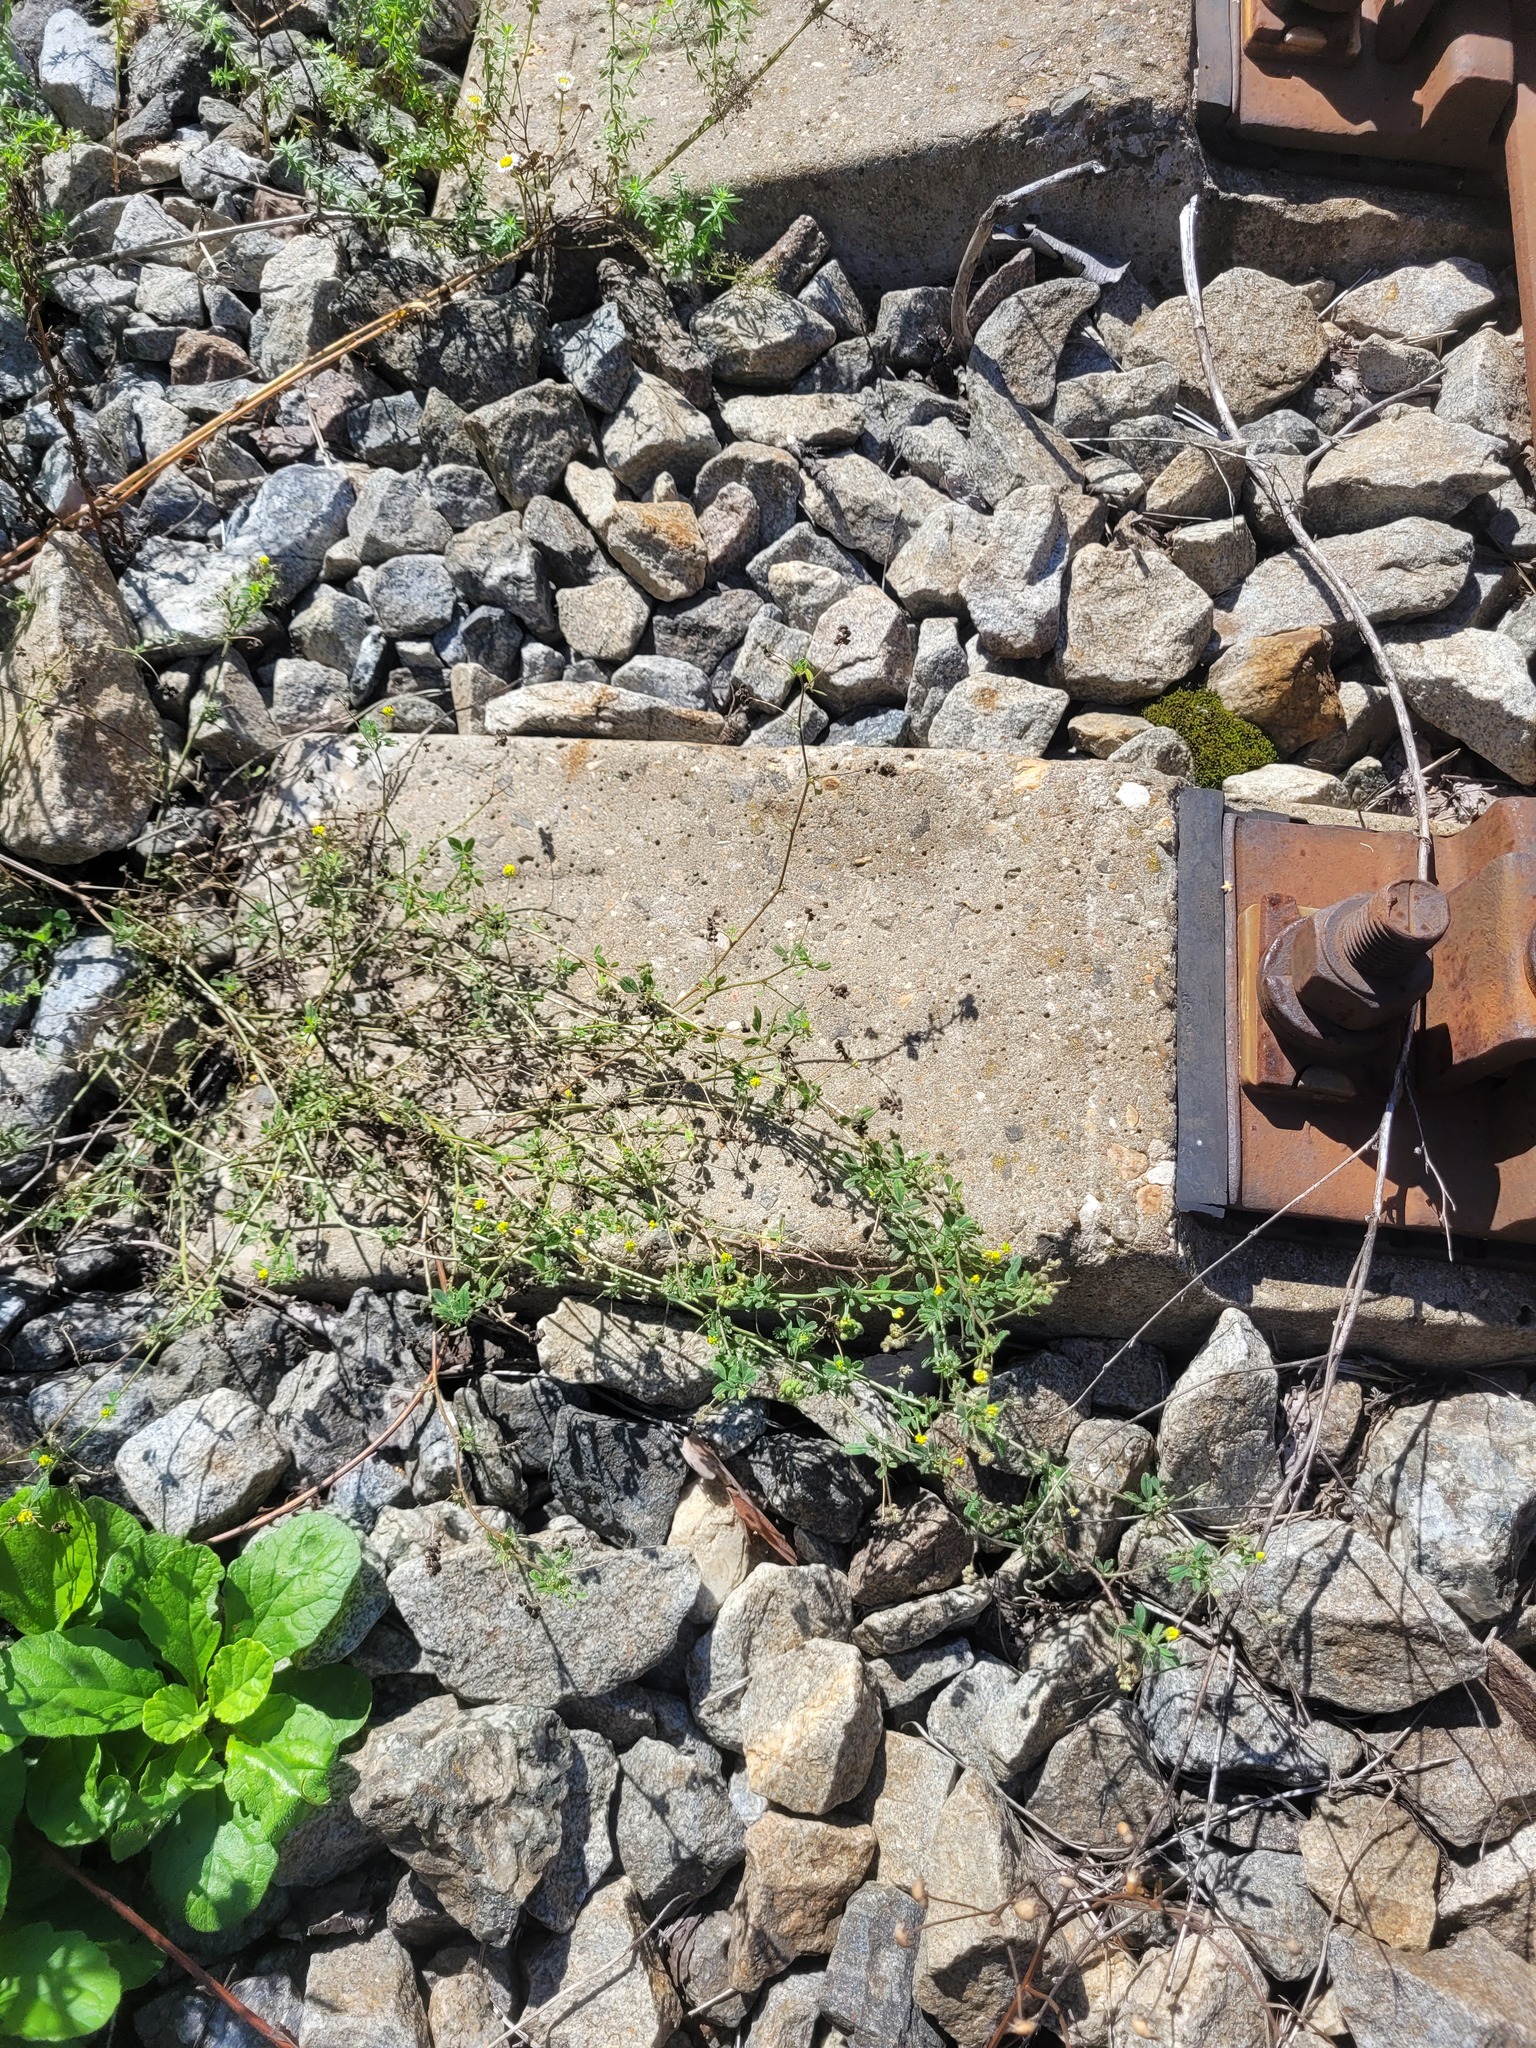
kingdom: Plantae
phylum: Tracheophyta
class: Magnoliopsida
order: Fabales
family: Fabaceae
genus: Medicago
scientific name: Medicago lupulina
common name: Black medick
